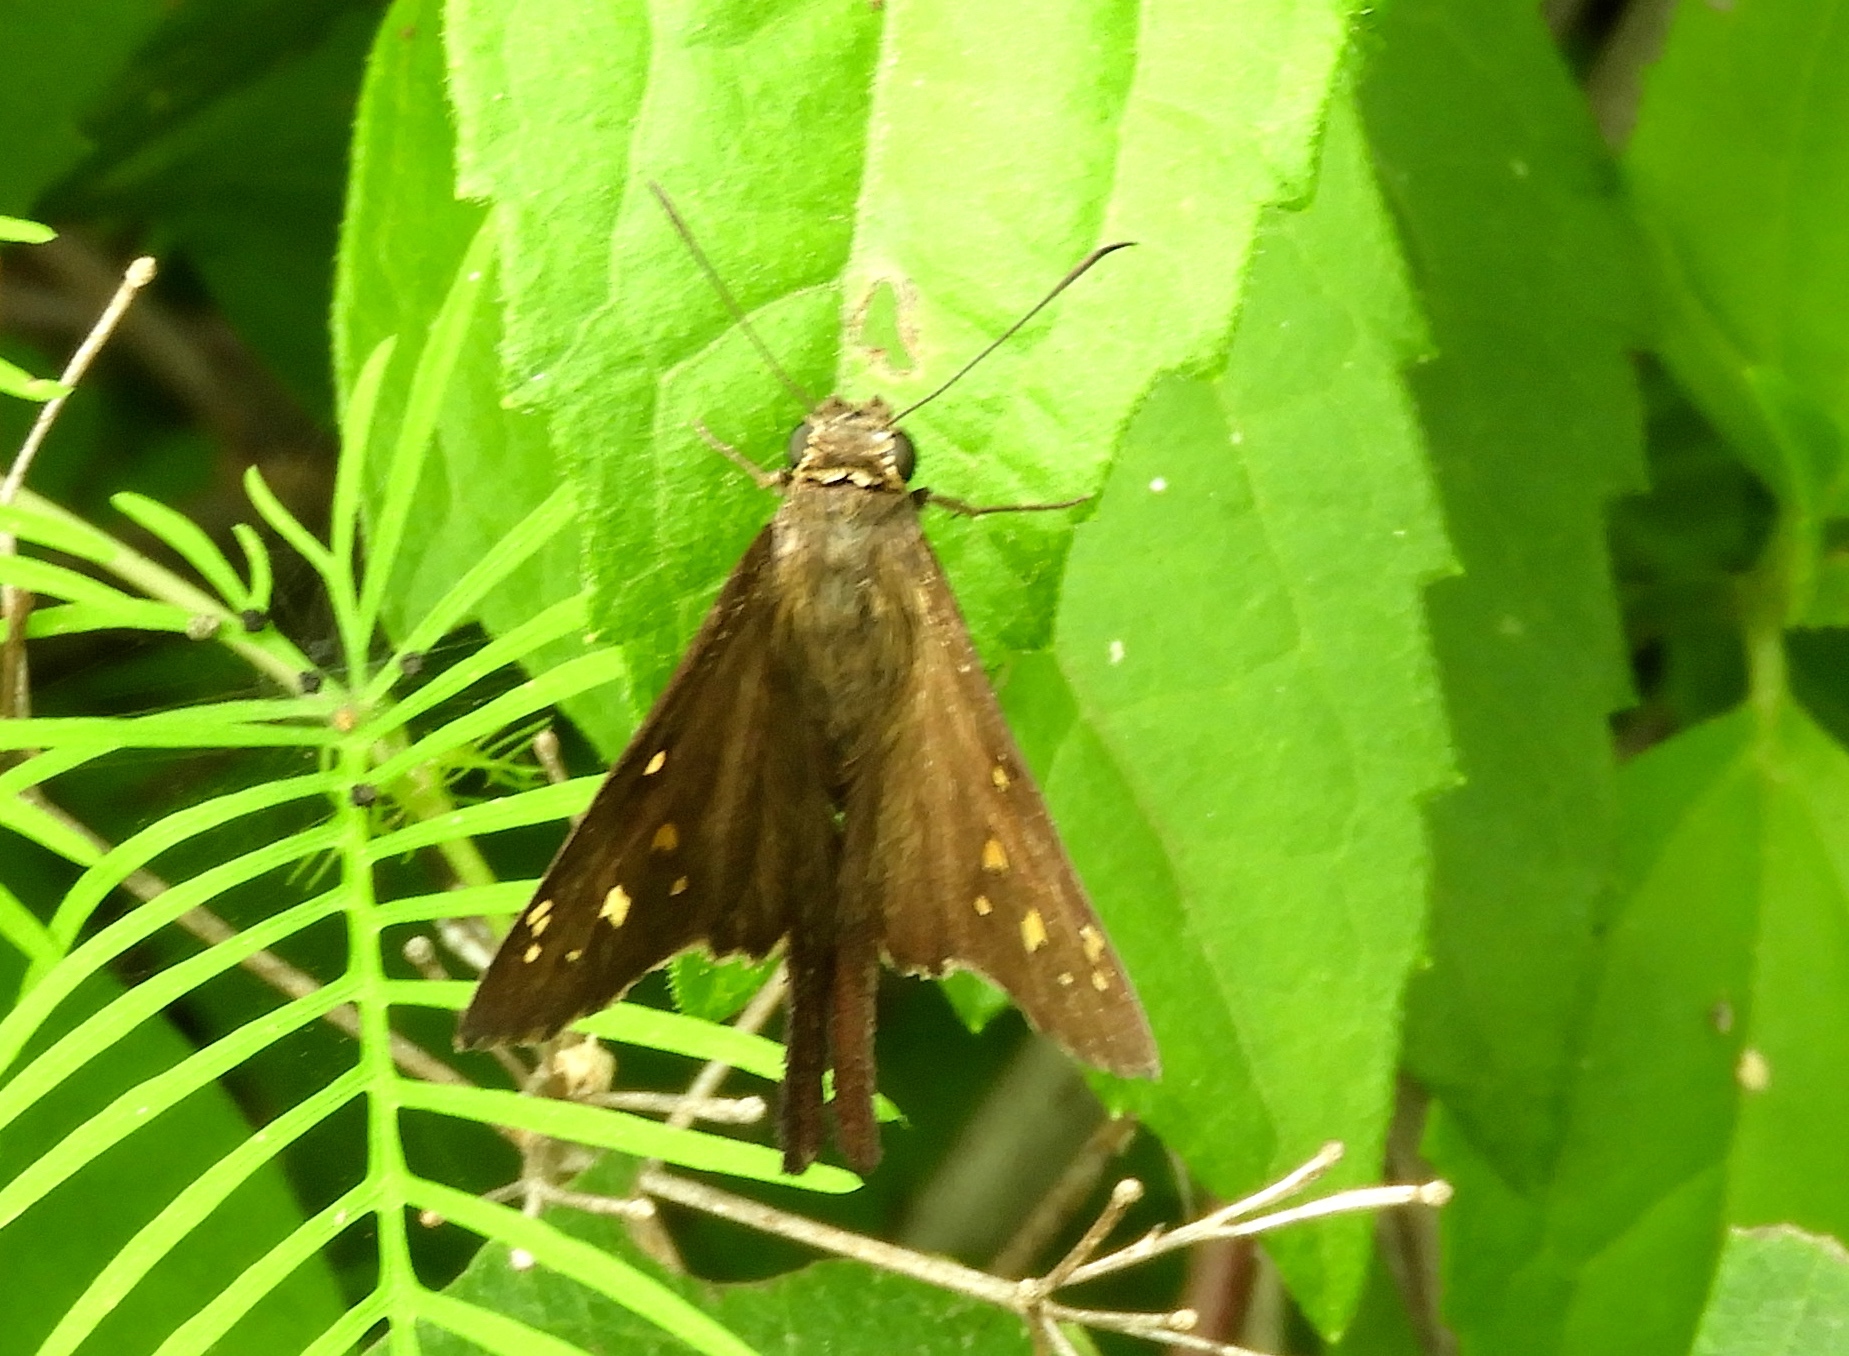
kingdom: Animalia
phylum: Arthropoda
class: Insecta
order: Lepidoptera
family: Hesperiidae
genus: Thorybes
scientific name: Thorybes
